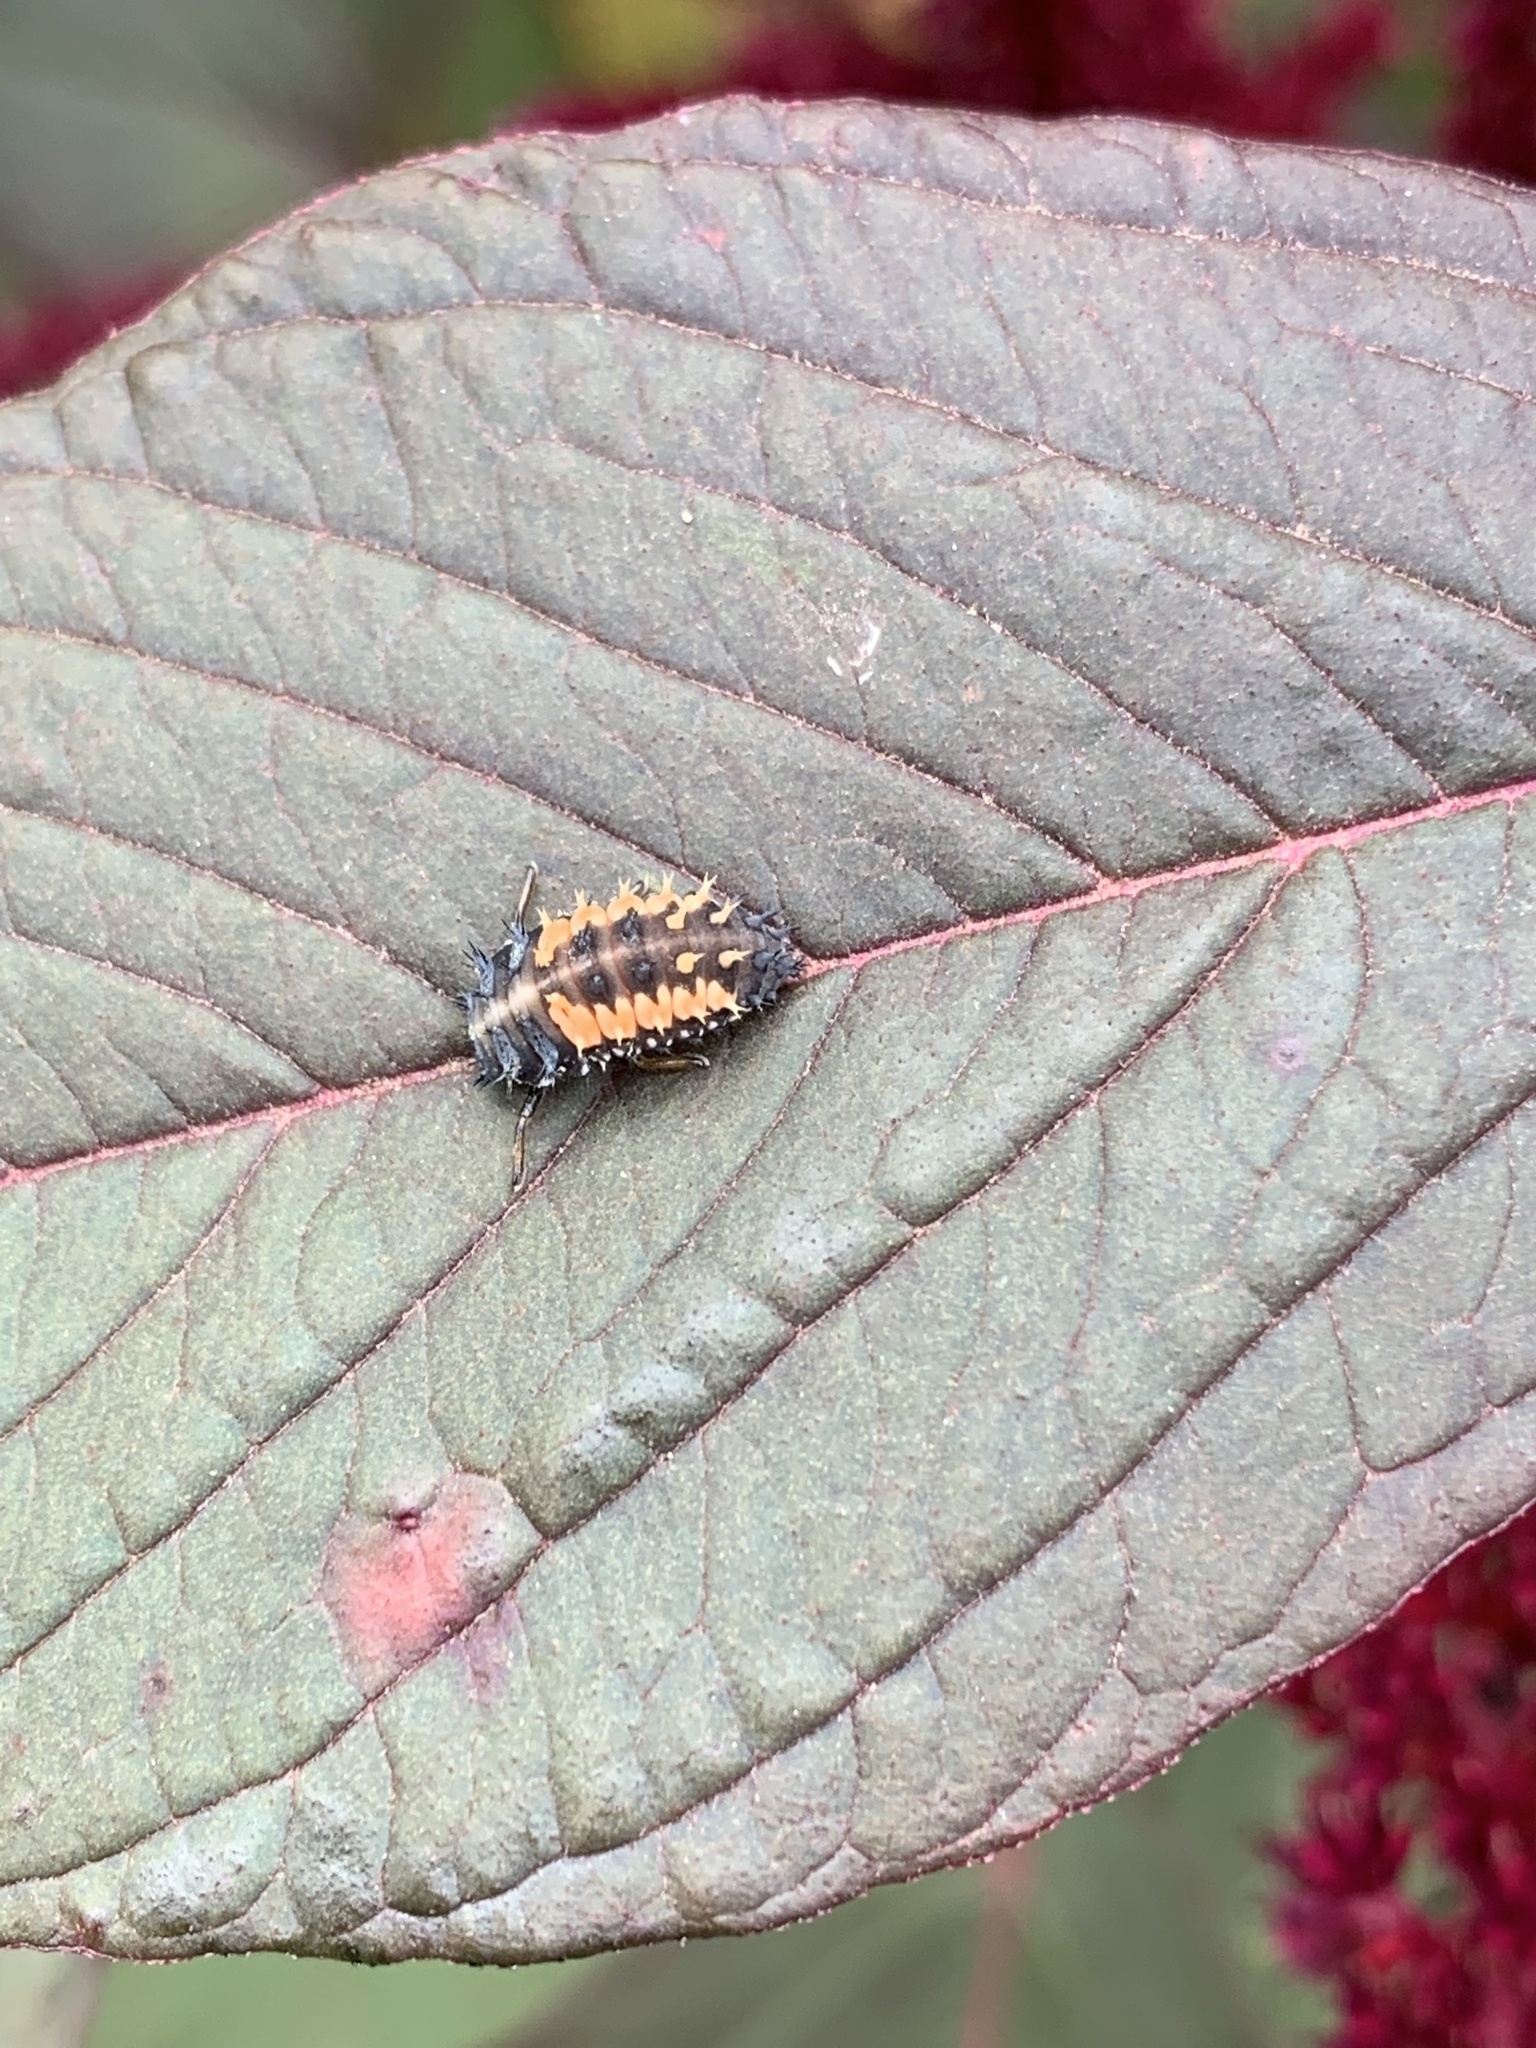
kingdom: Animalia
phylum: Arthropoda
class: Insecta
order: Coleoptera
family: Coccinellidae
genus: Harmonia
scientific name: Harmonia axyridis
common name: Harlequin ladybird
